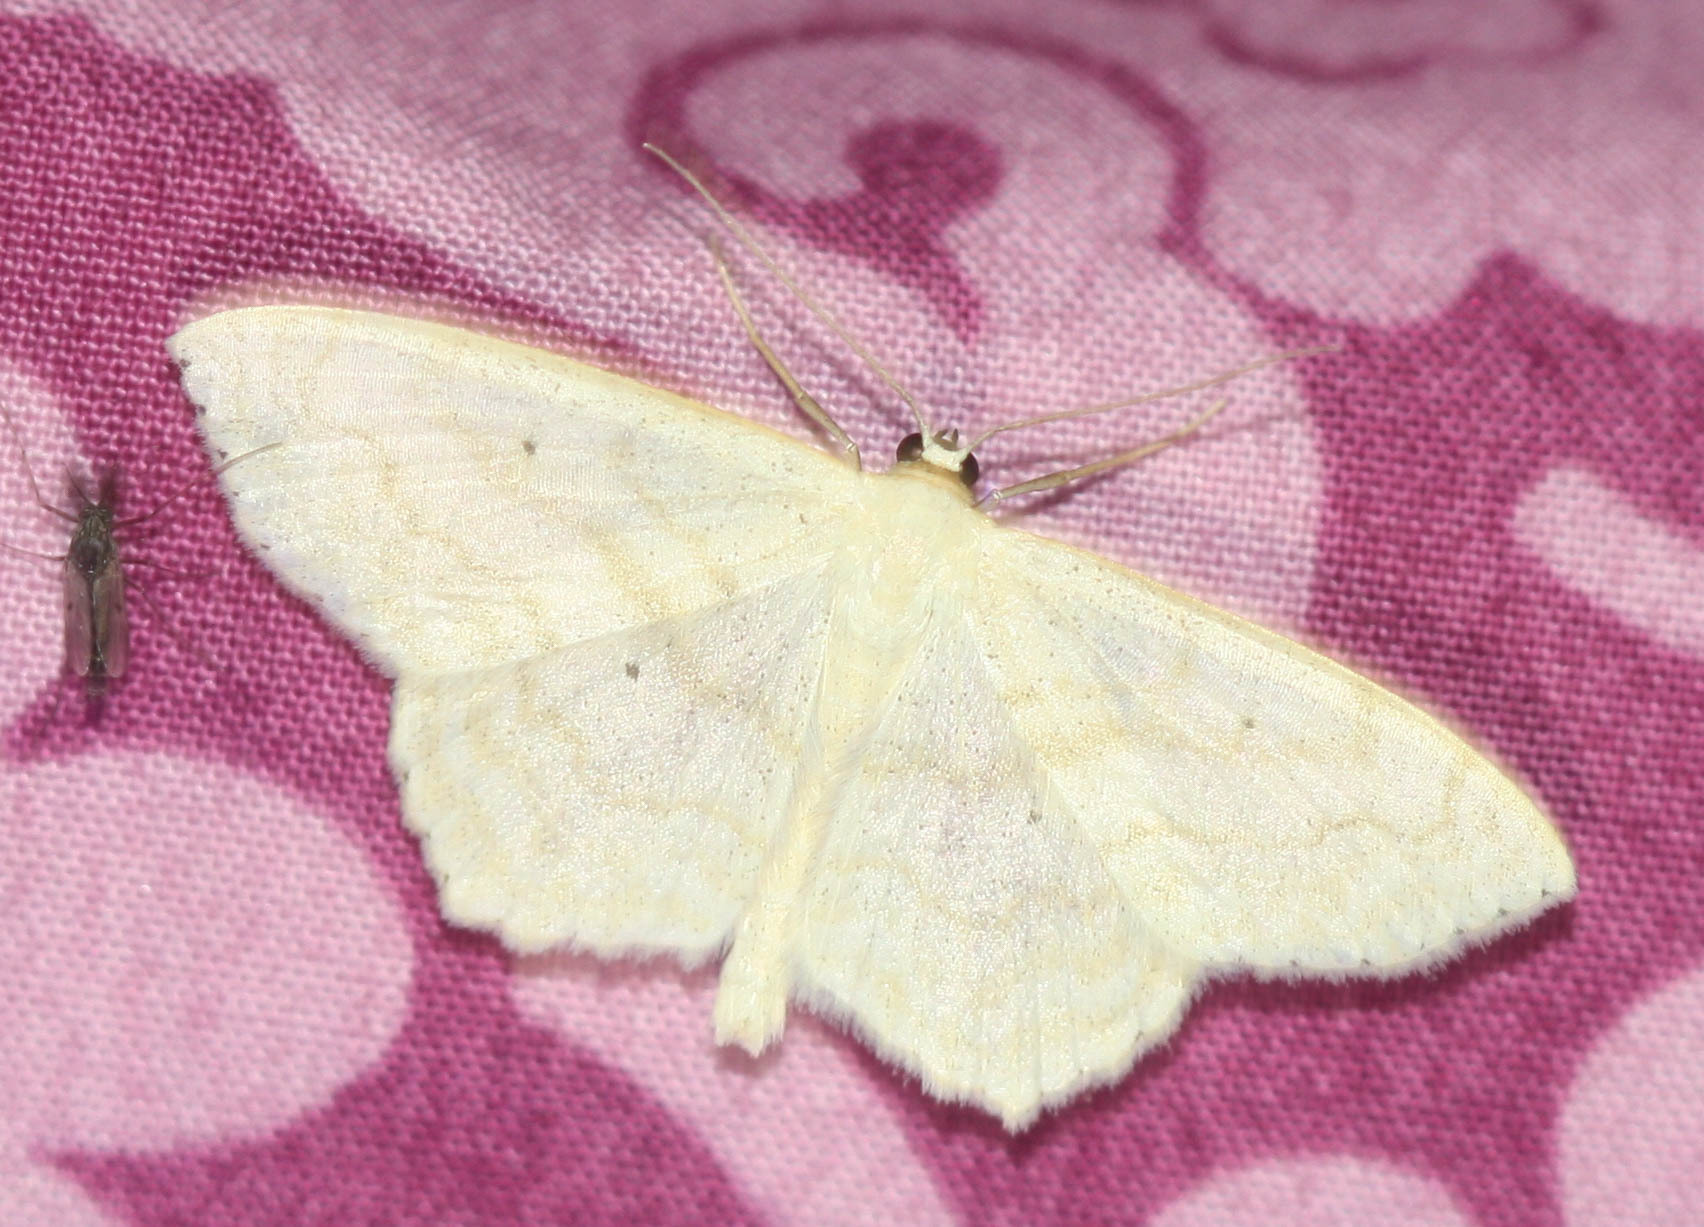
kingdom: Animalia
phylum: Arthropoda
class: Insecta
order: Lepidoptera
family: Geometridae
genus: Scopula
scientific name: Scopula limboundata
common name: Large lace border
